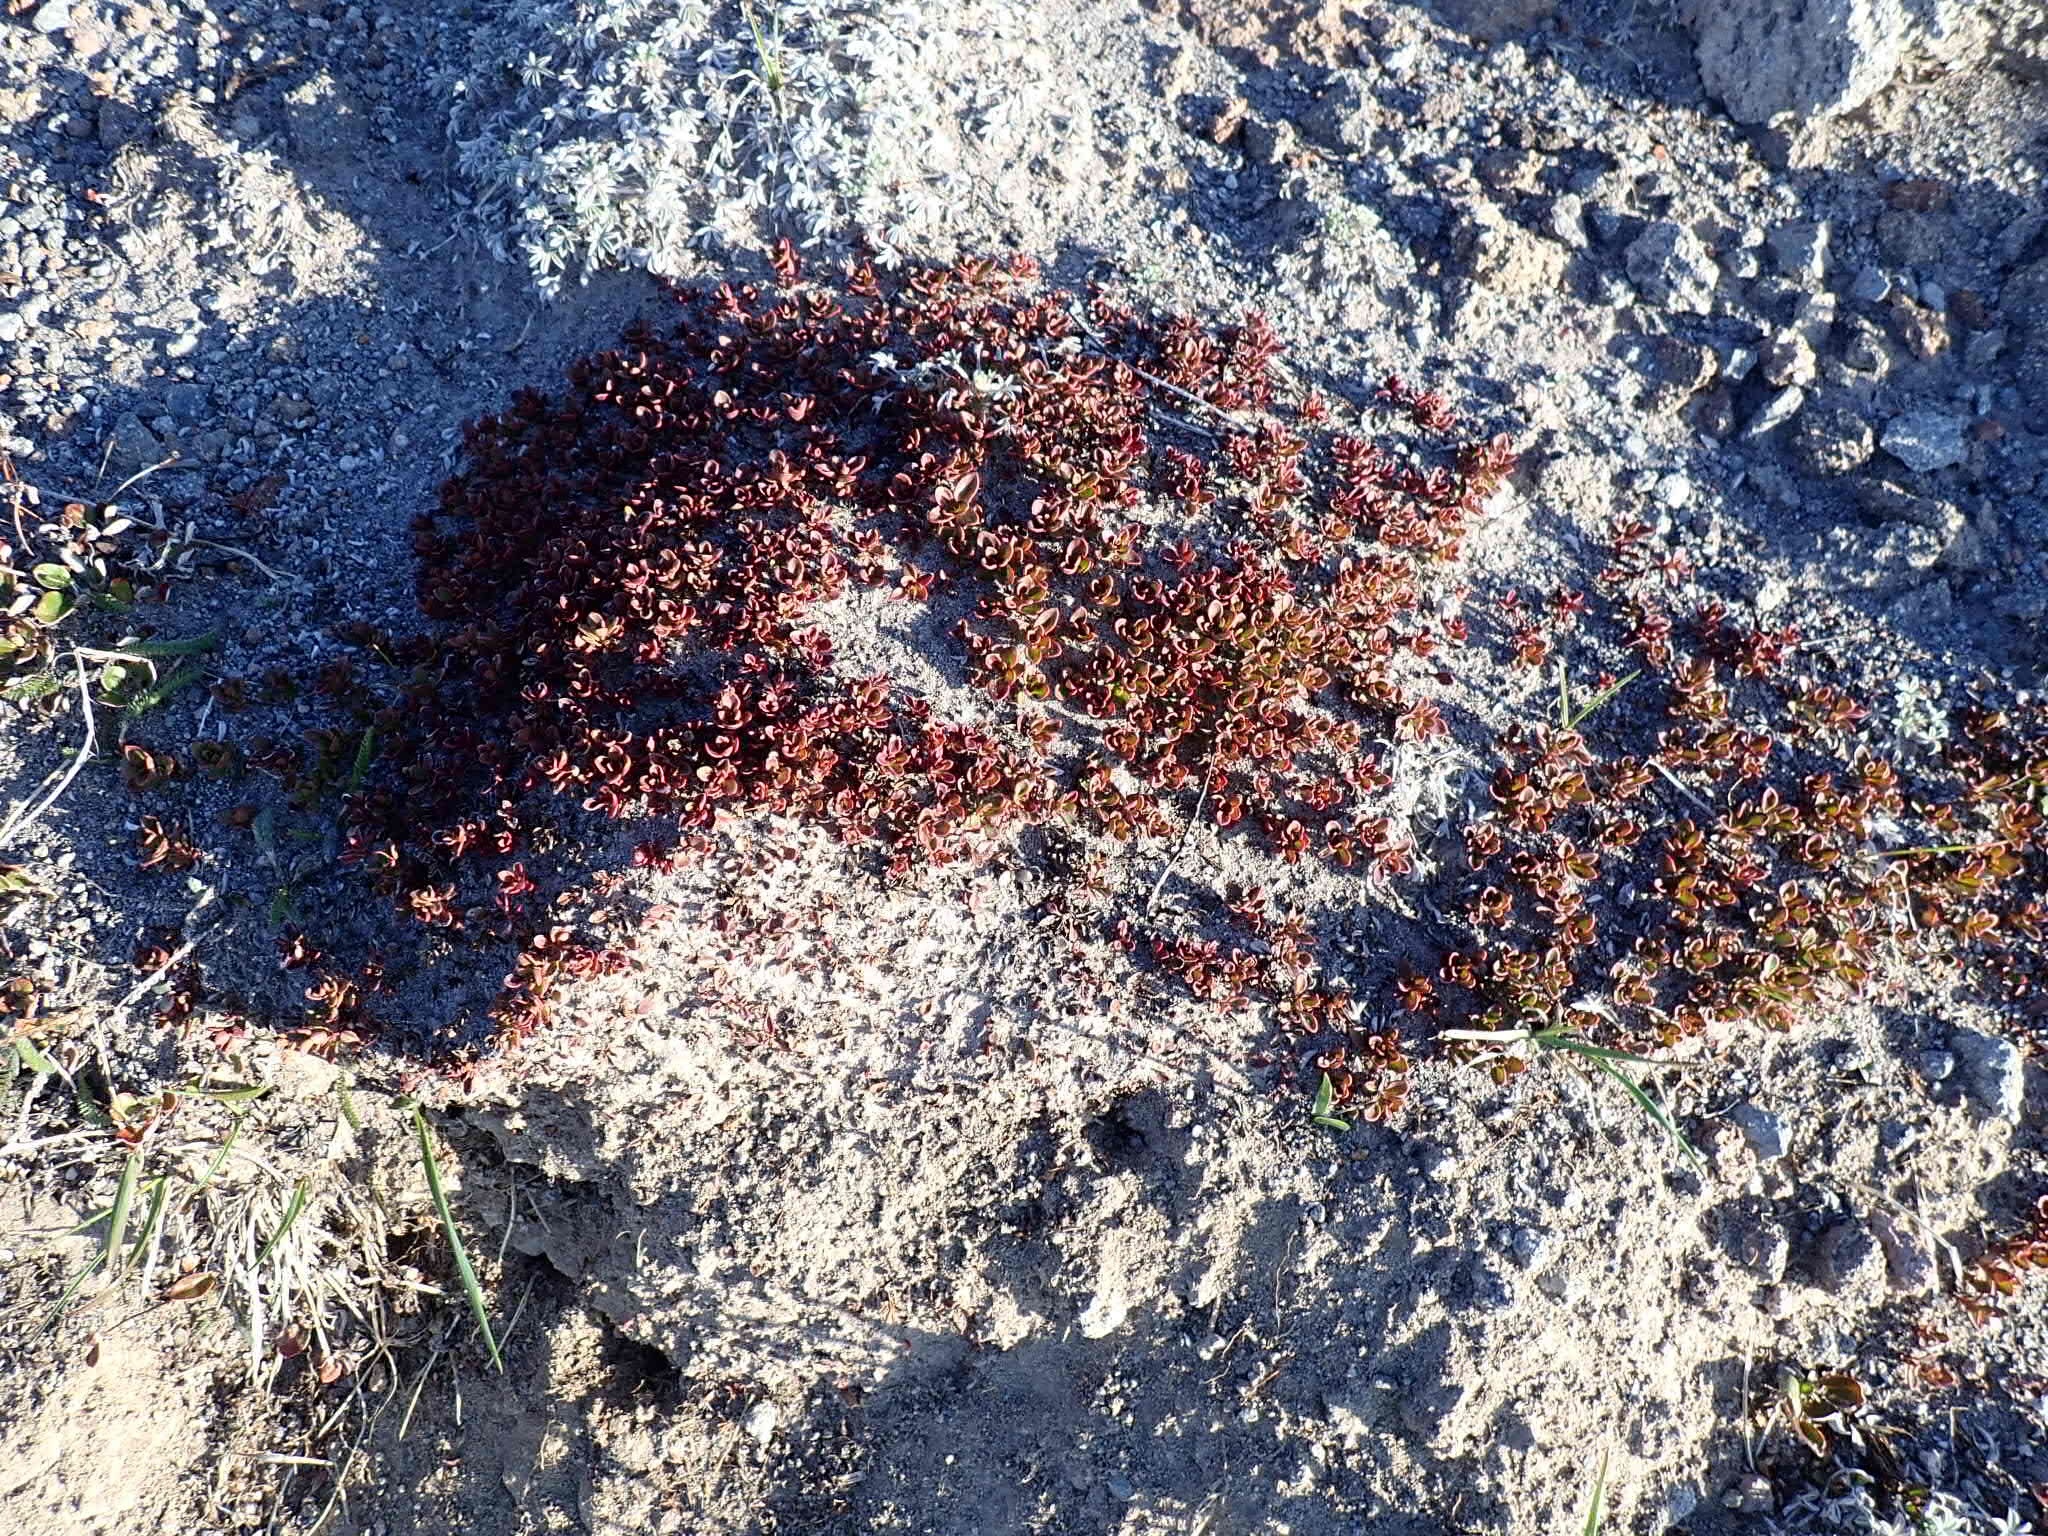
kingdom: Plantae
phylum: Tracheophyta
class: Magnoliopsida
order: Lamiales
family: Plantaginaceae
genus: Penstemon
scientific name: Penstemon davidsonii
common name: Davidson's penstemon
